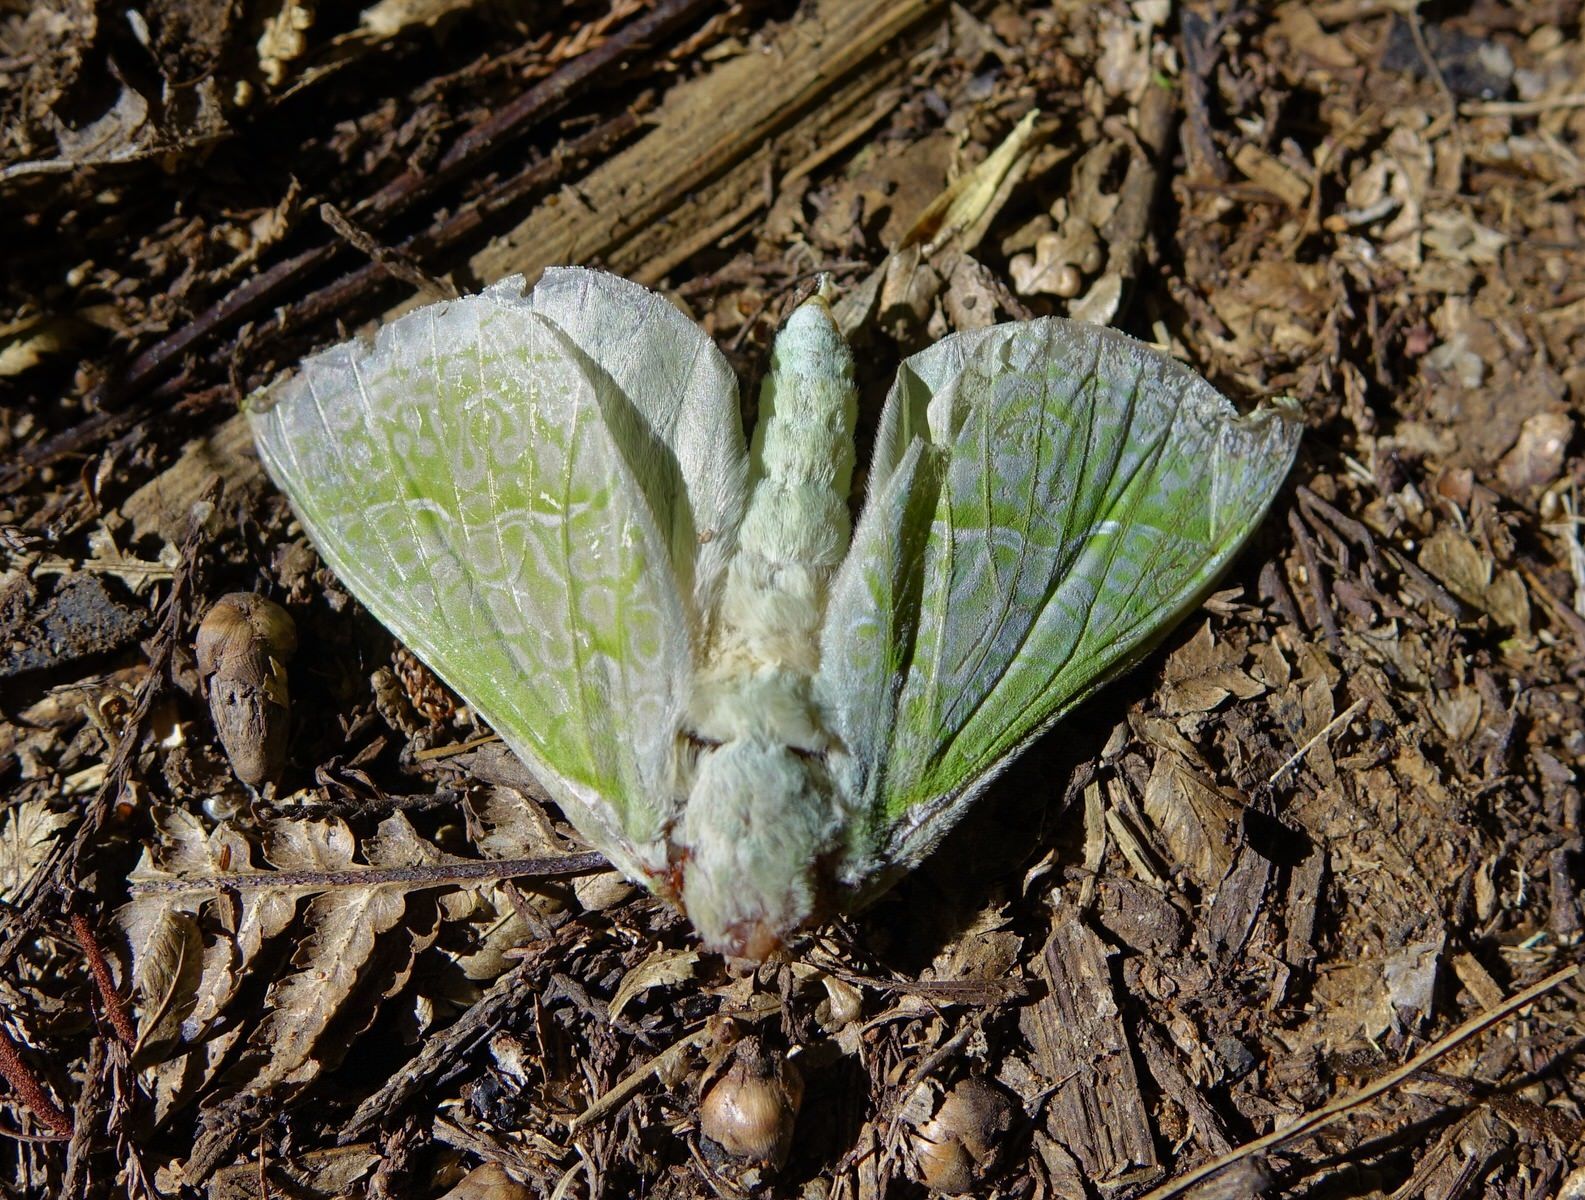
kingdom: Animalia
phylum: Arthropoda
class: Insecta
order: Lepidoptera
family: Hepialidae
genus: Aenetus
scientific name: Aenetus virescens
